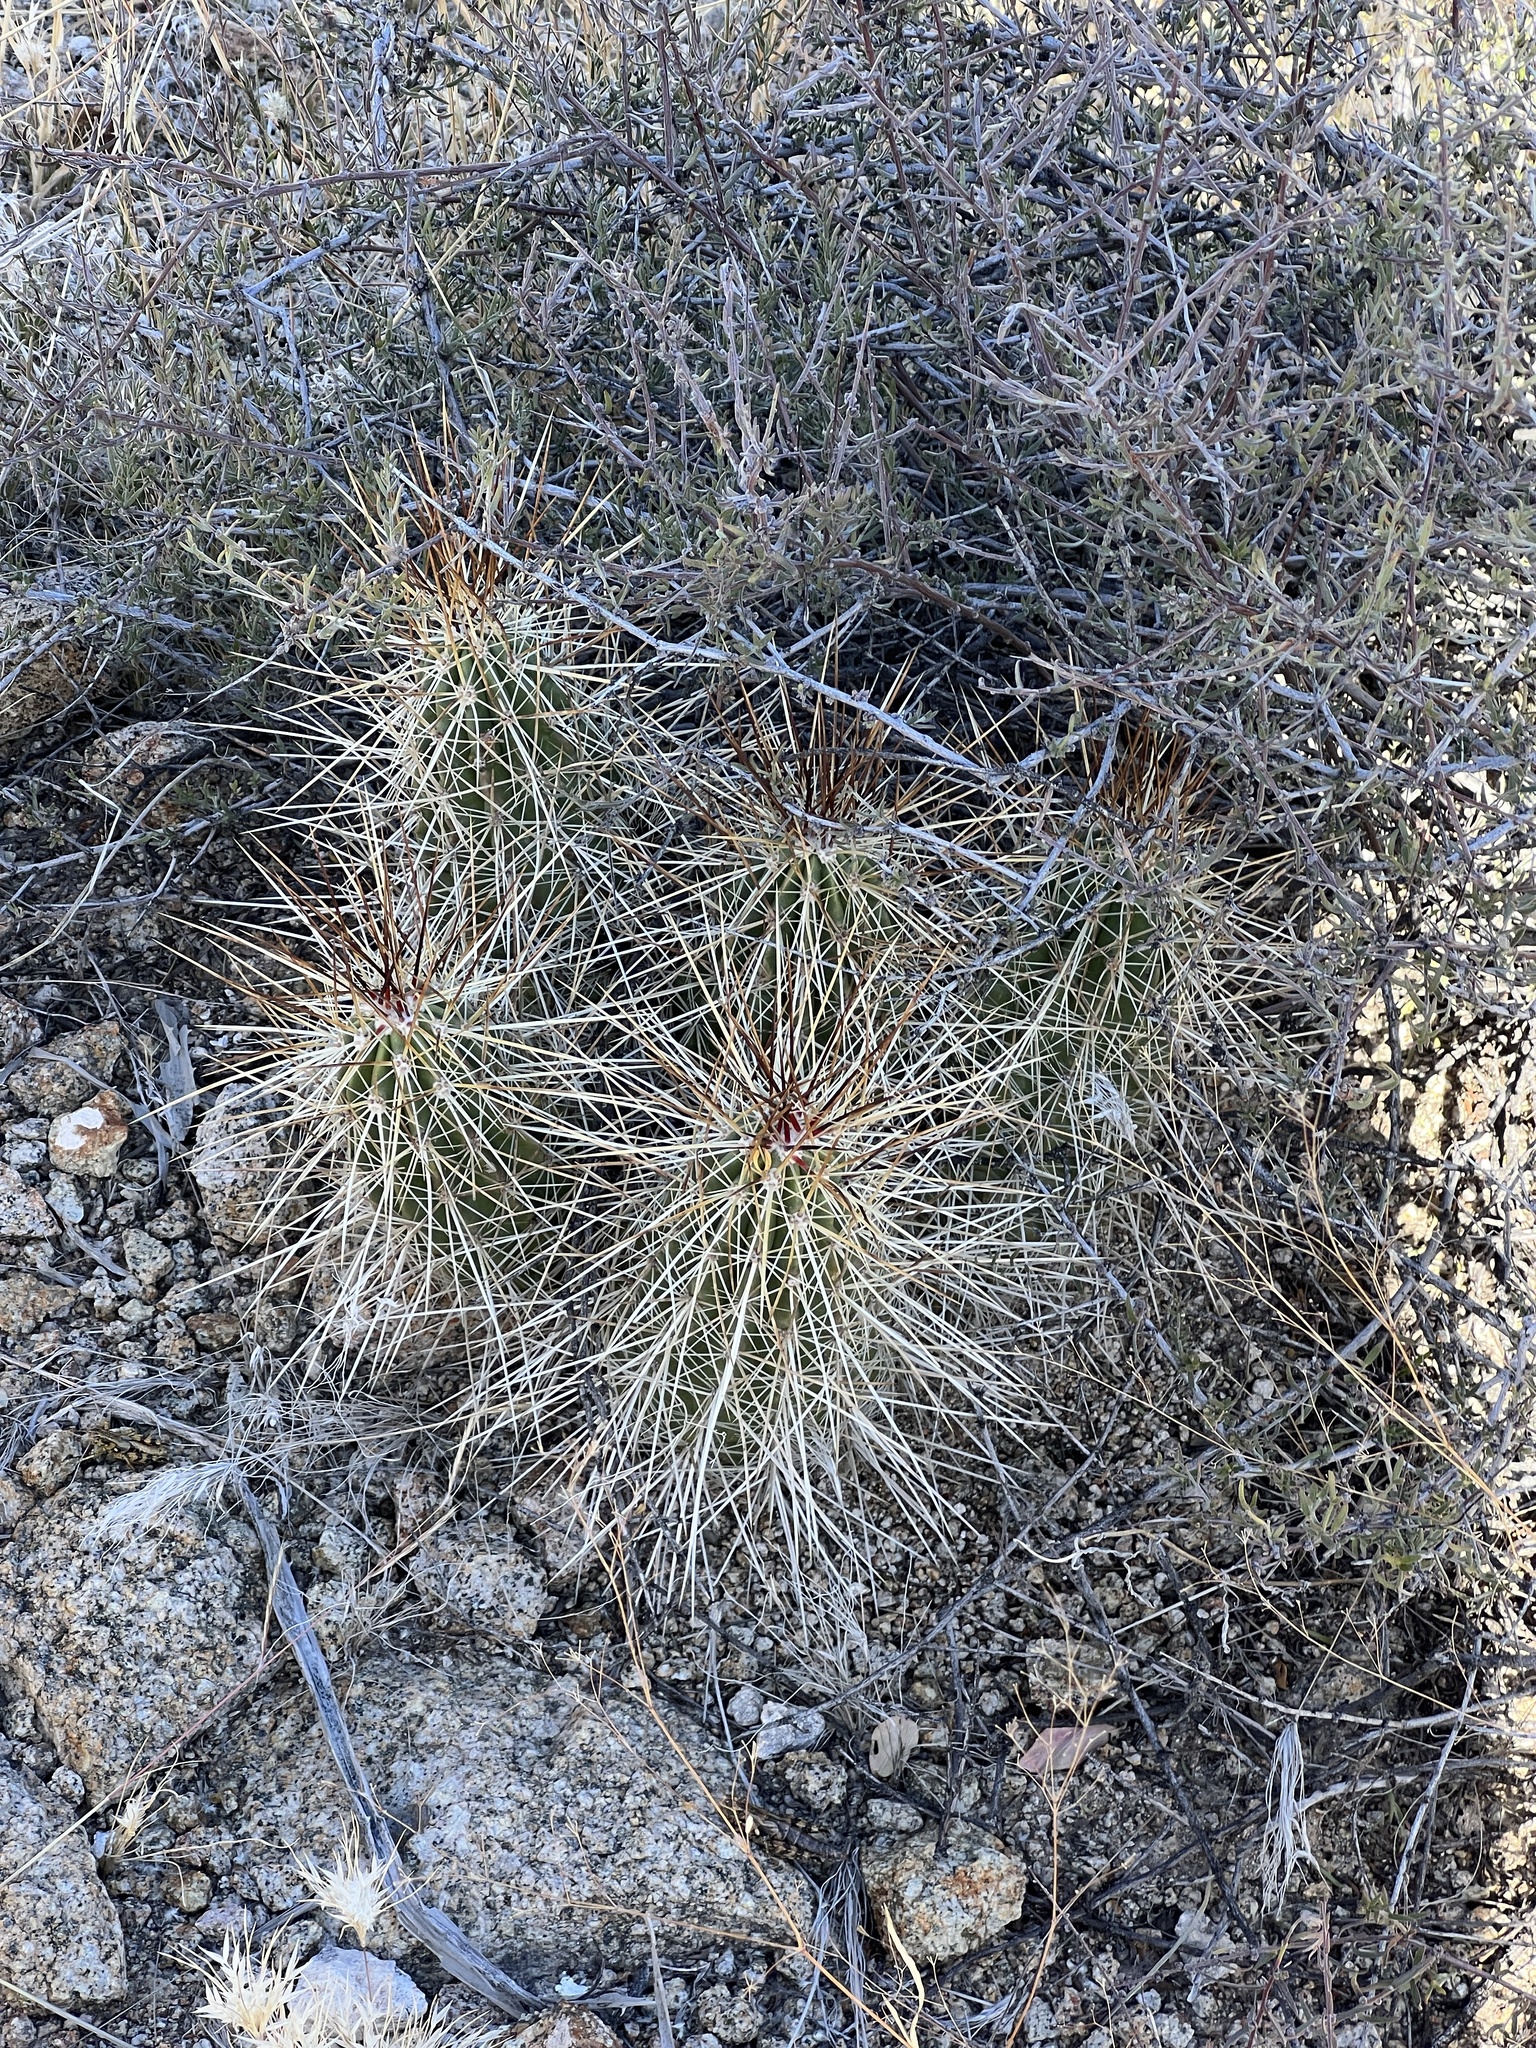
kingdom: Plantae
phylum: Tracheophyta
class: Magnoliopsida
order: Caryophyllales
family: Cactaceae
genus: Echinocereus
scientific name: Echinocereus stramineus
